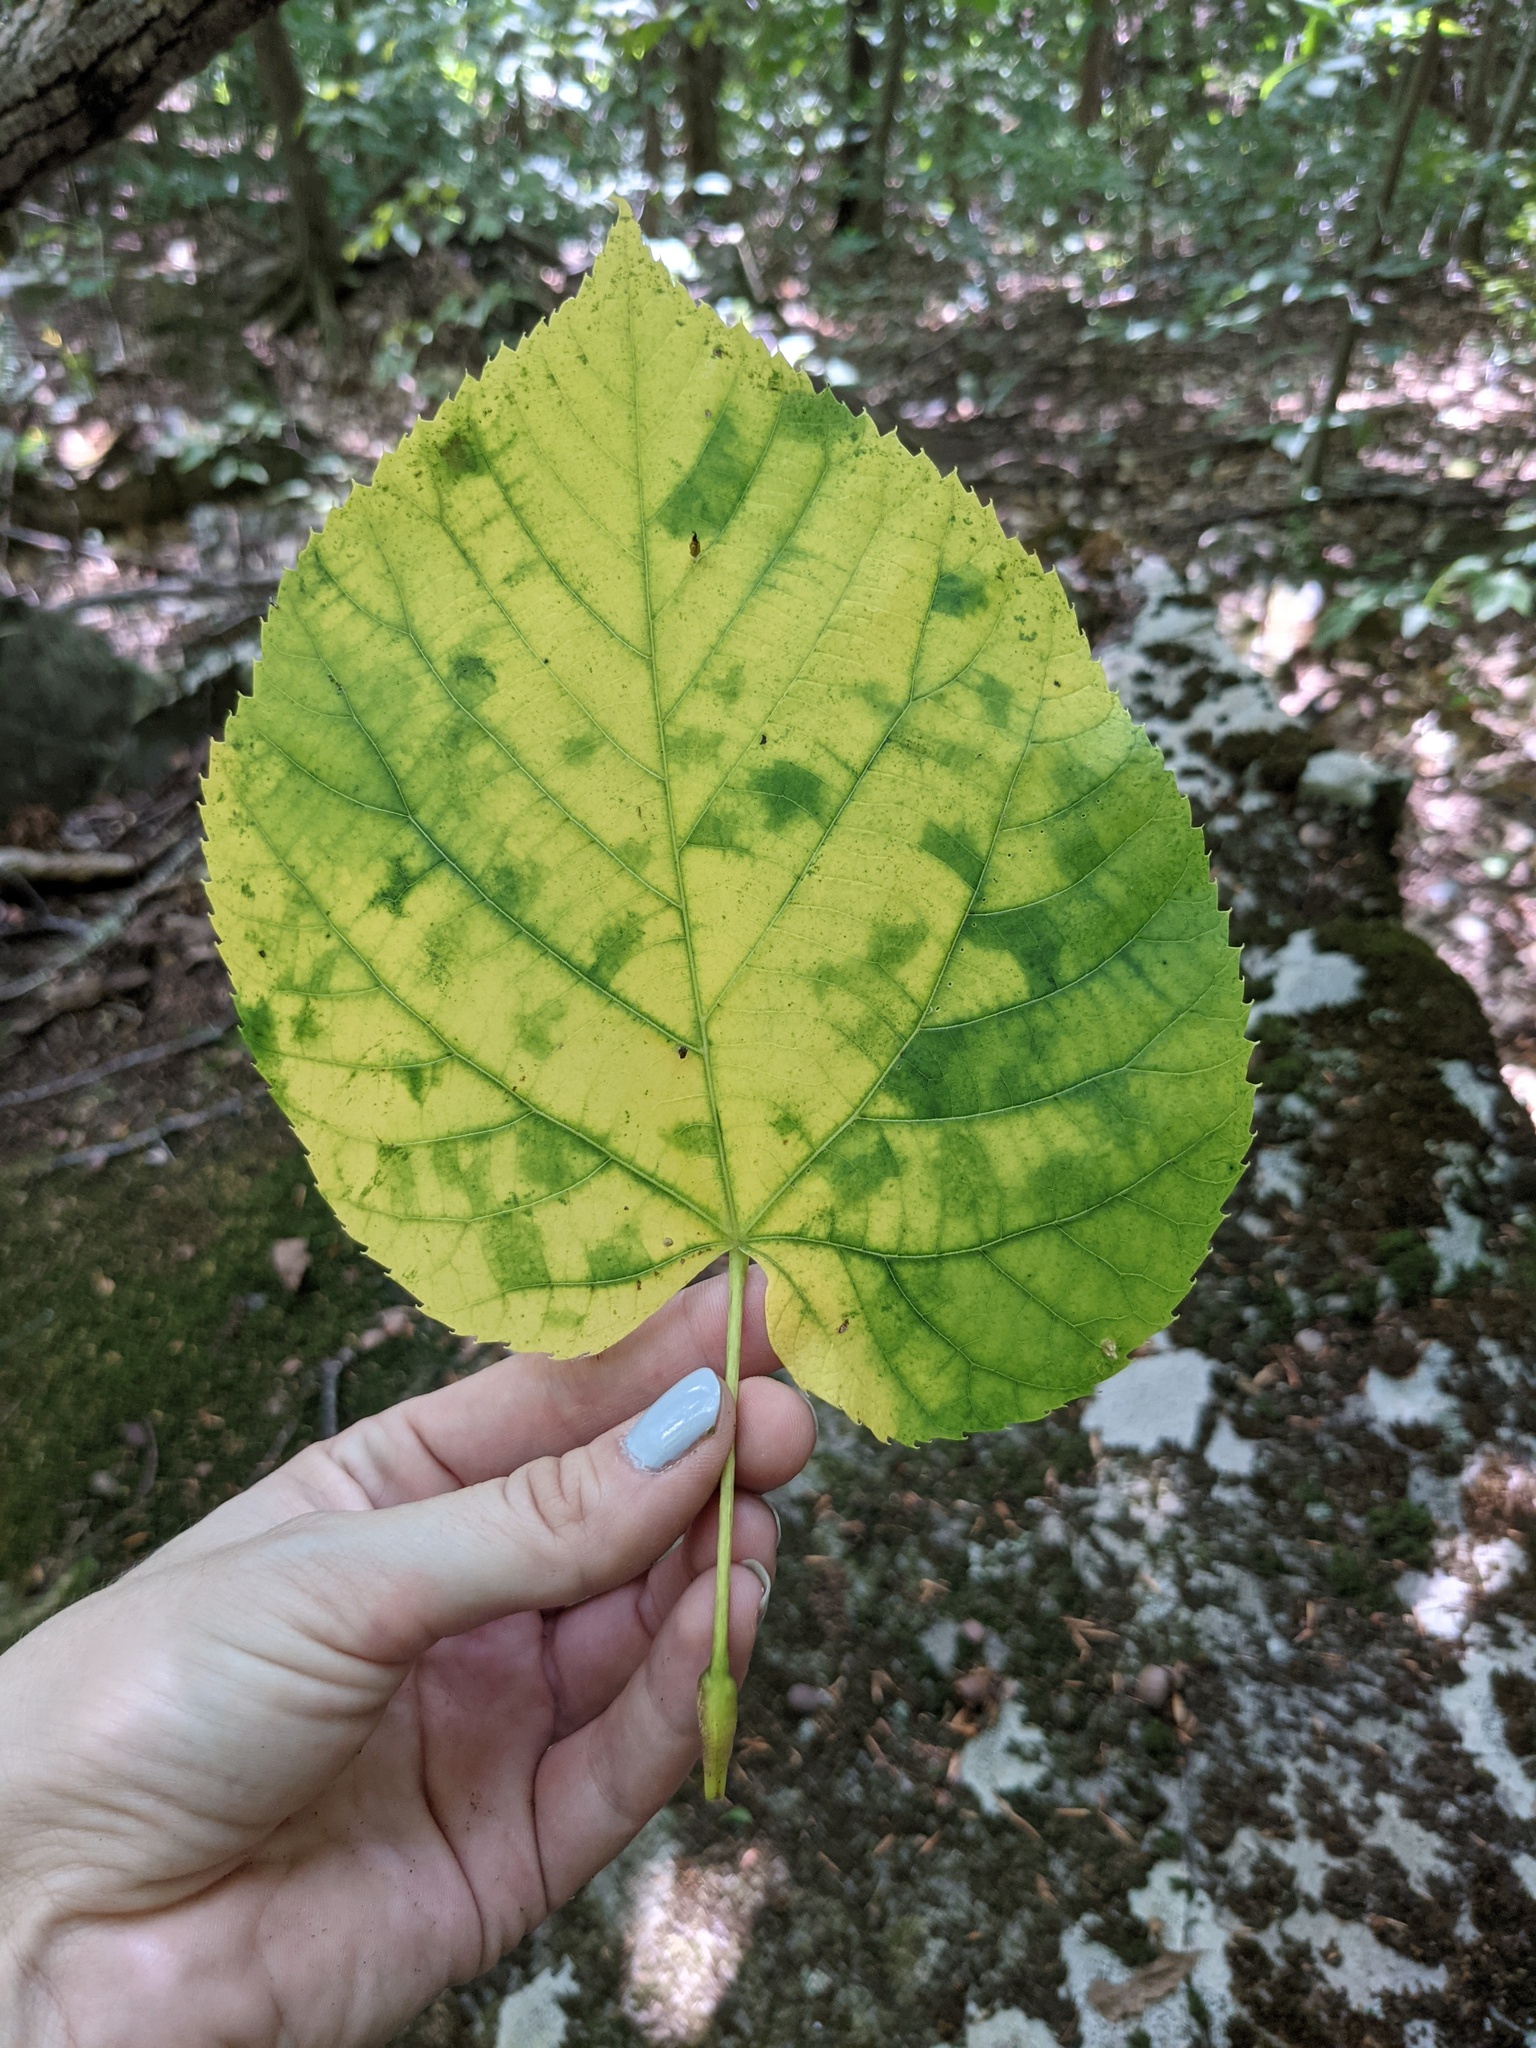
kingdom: Plantae
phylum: Tracheophyta
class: Magnoliopsida
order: Malvales
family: Malvaceae
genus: Tilia
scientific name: Tilia americana
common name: Basswood
